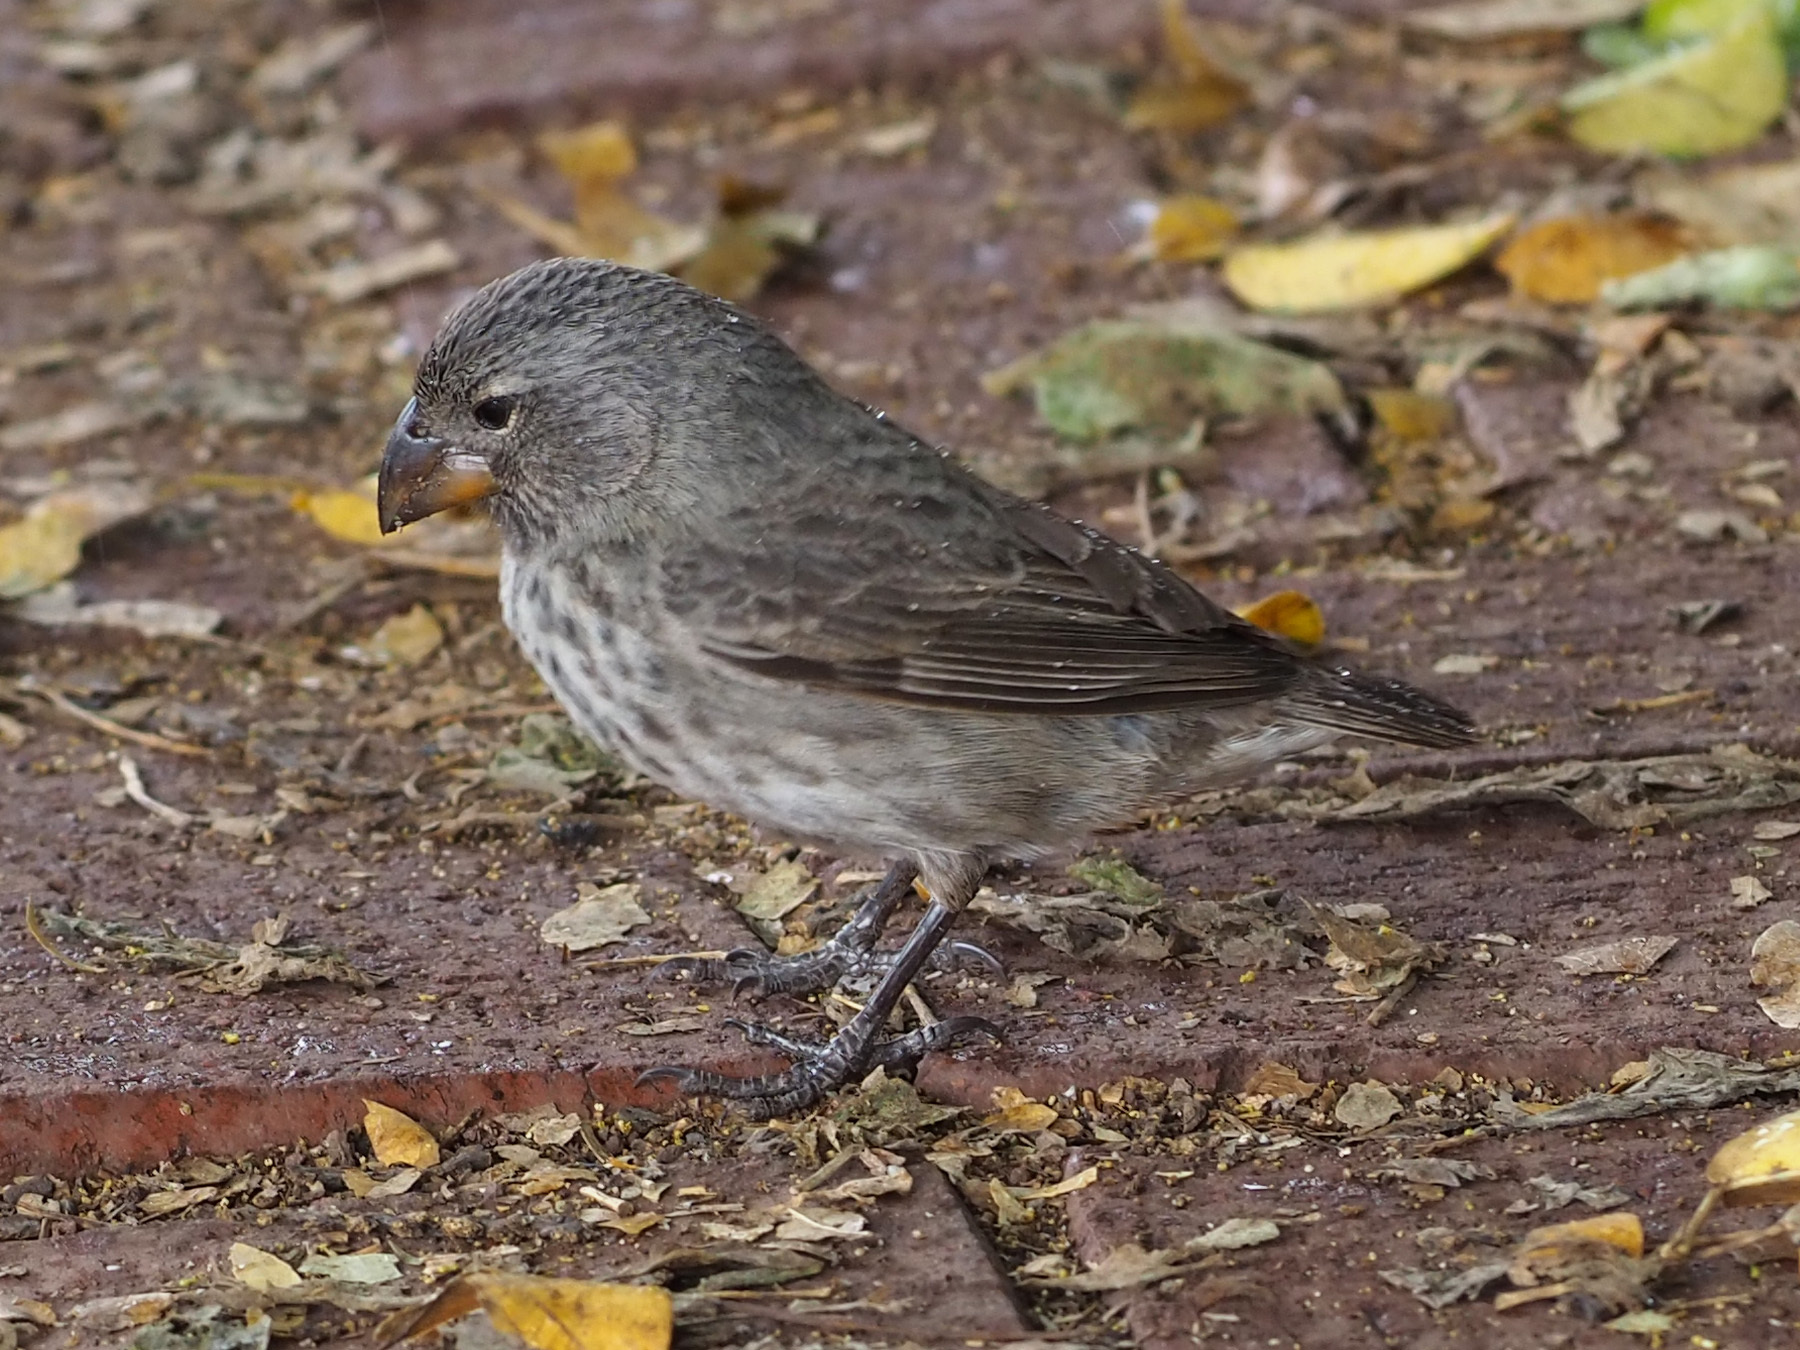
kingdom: Animalia
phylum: Chordata
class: Aves
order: Passeriformes
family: Thraupidae
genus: Geospiza
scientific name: Geospiza fortis
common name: Medium ground finch
